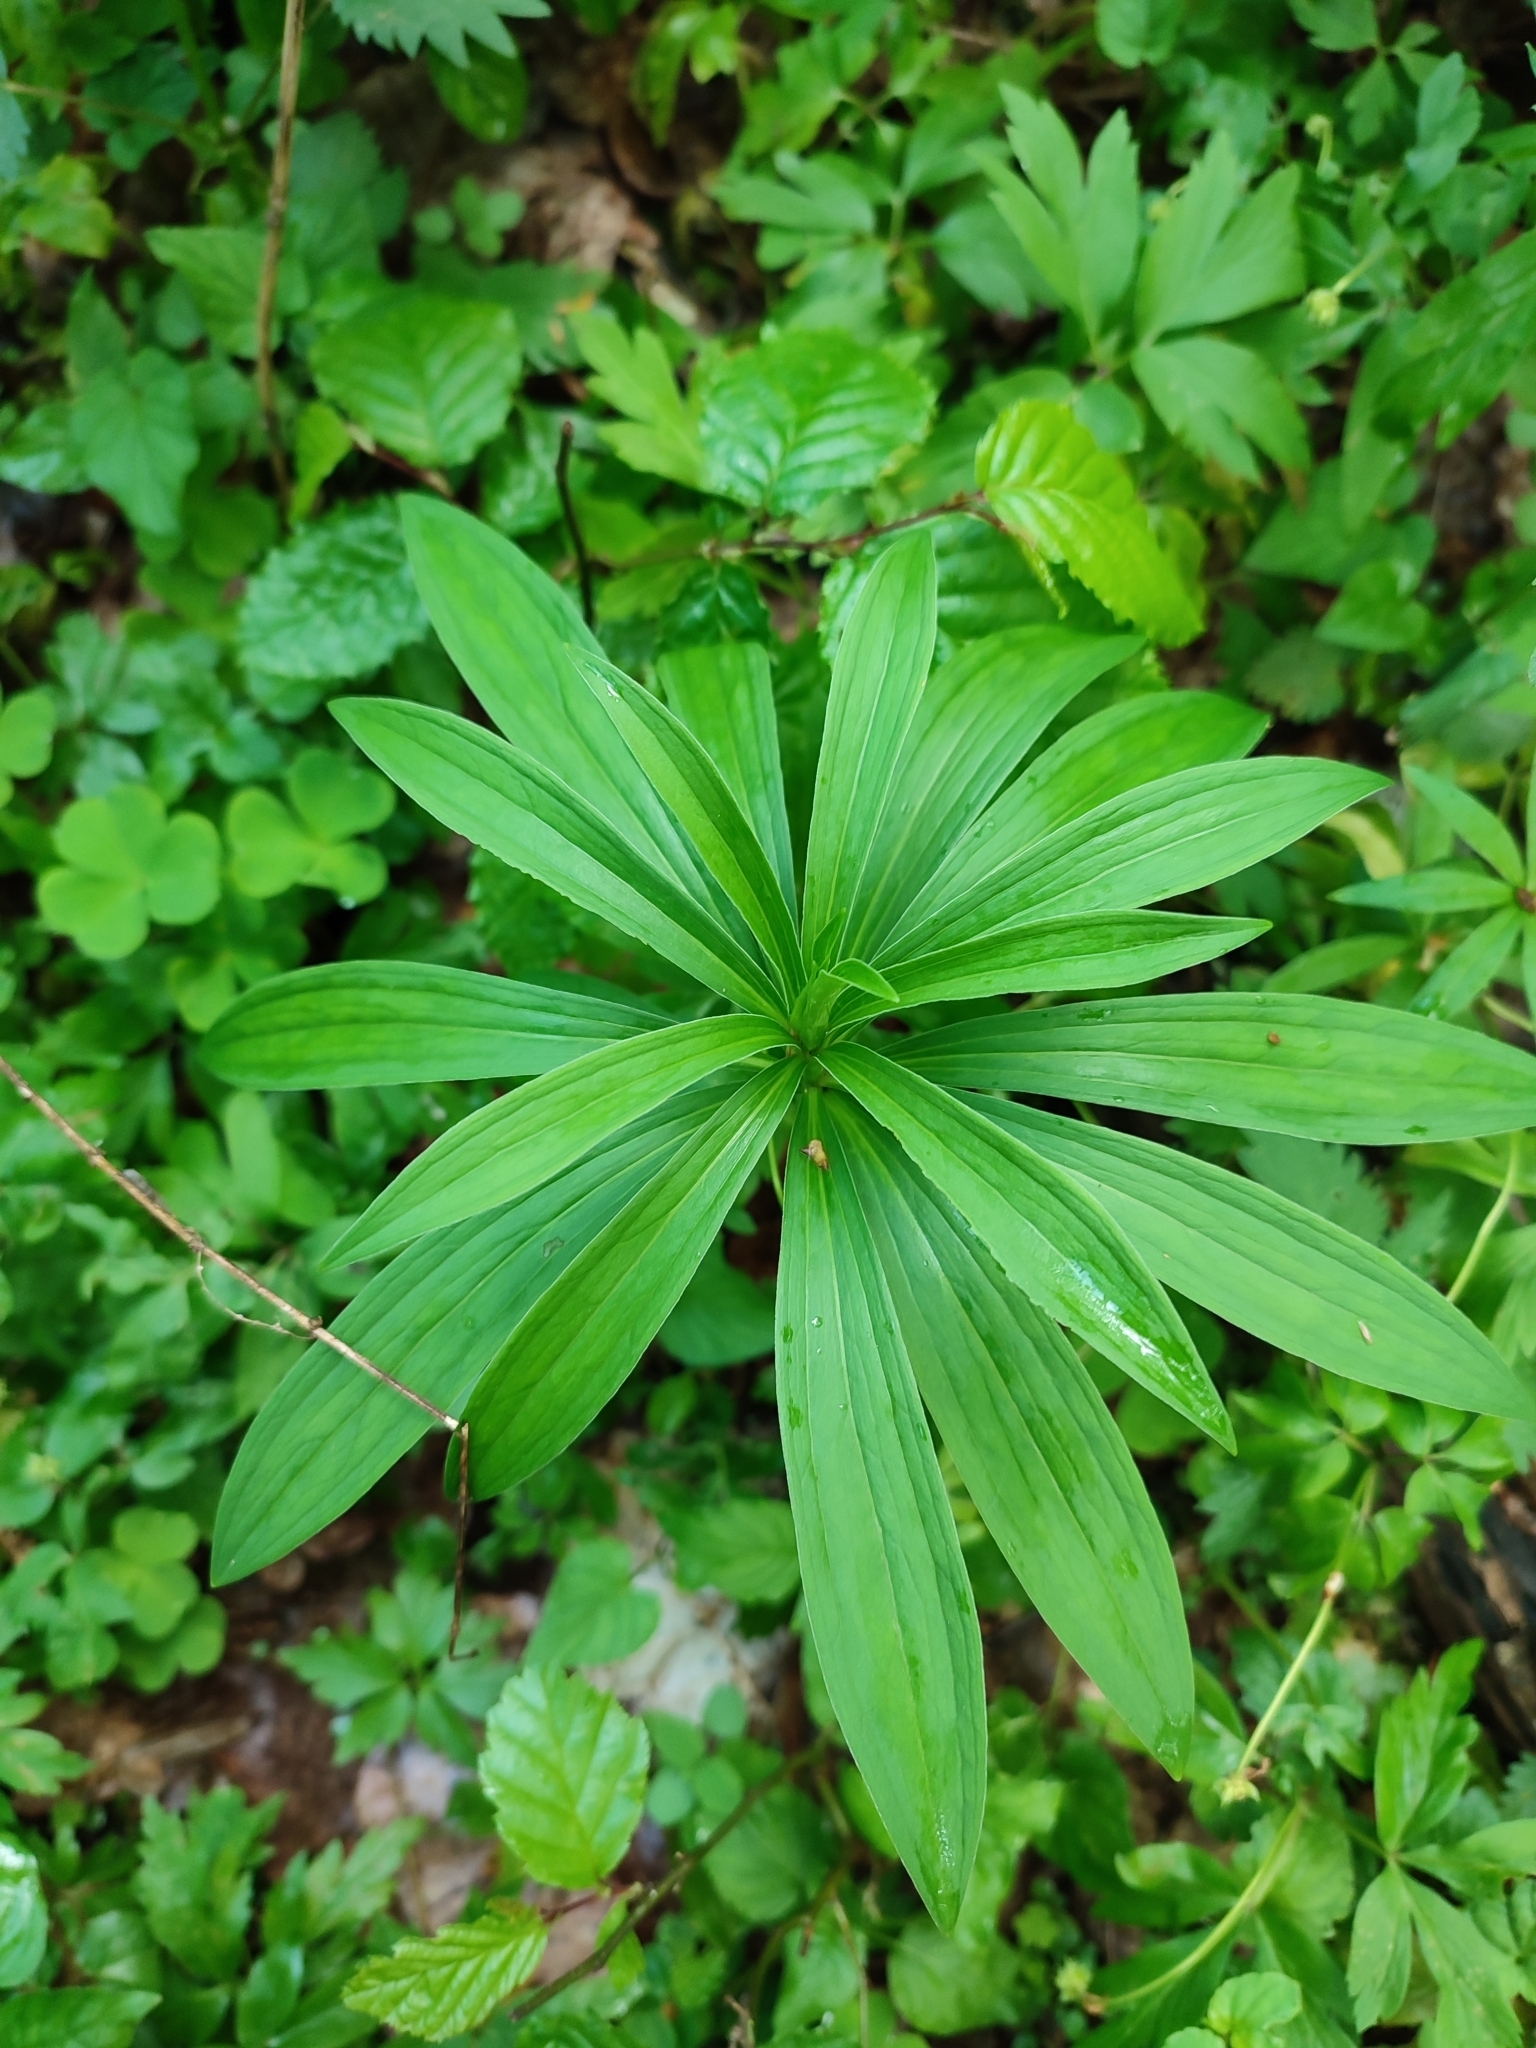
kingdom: Plantae
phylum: Tracheophyta
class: Liliopsida
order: Liliales
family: Liliaceae
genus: Lilium
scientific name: Lilium martagon
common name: Martagon lily
